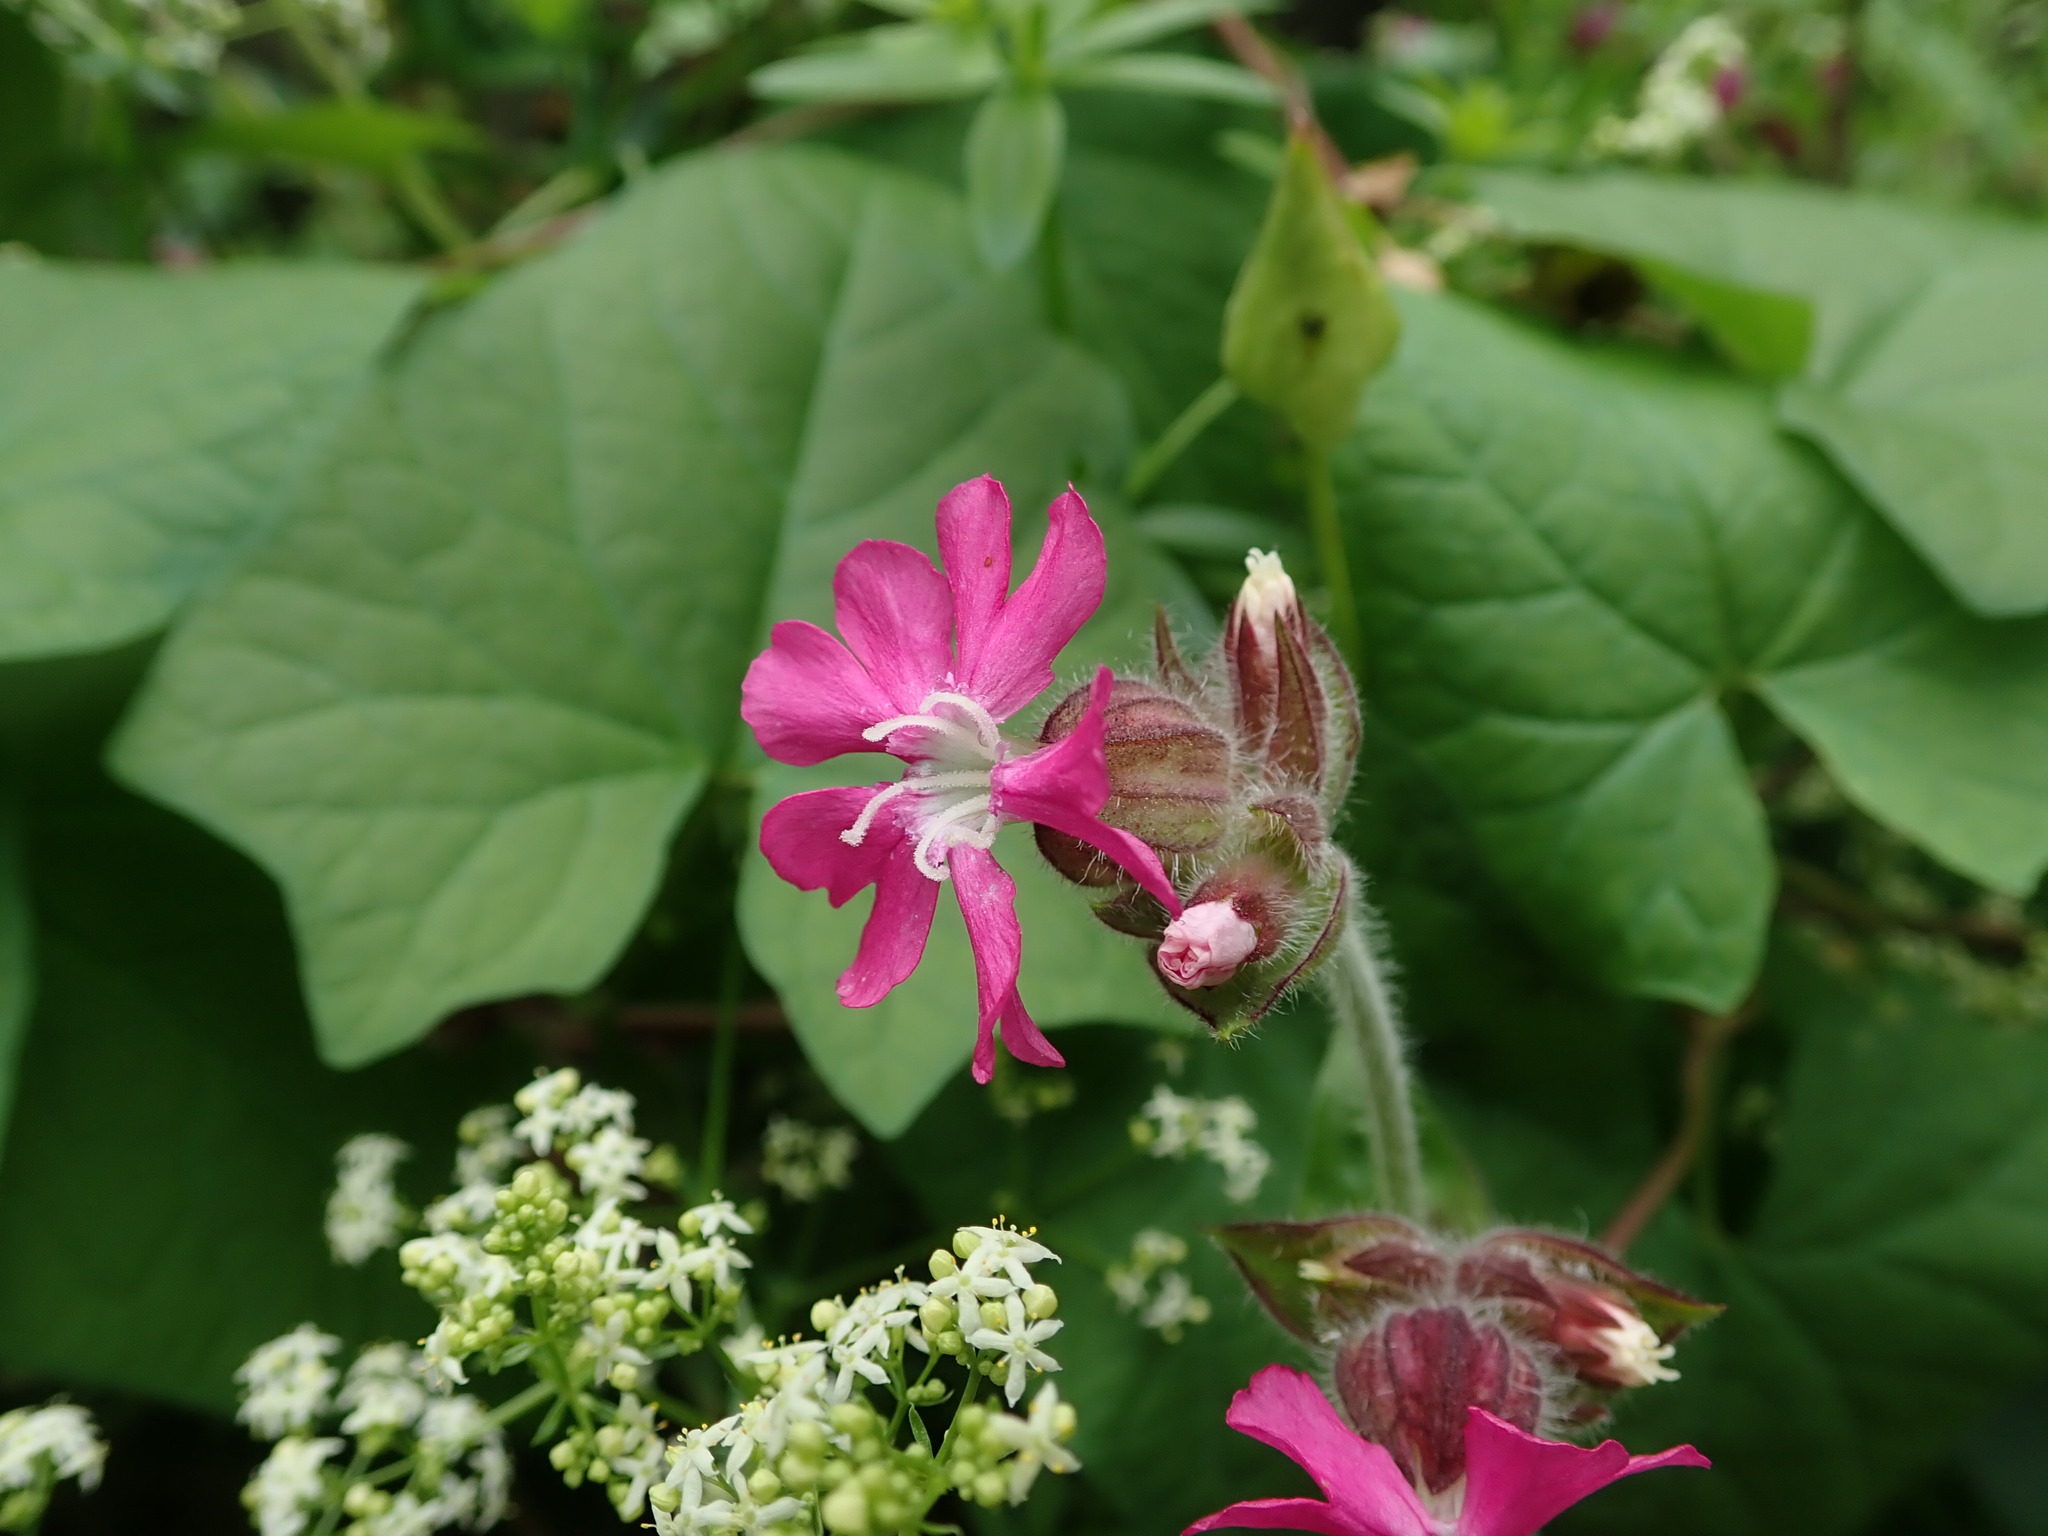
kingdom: Plantae
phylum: Tracheophyta
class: Magnoliopsida
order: Caryophyllales
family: Caryophyllaceae
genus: Silene
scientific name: Silene dioica
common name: Red campion
